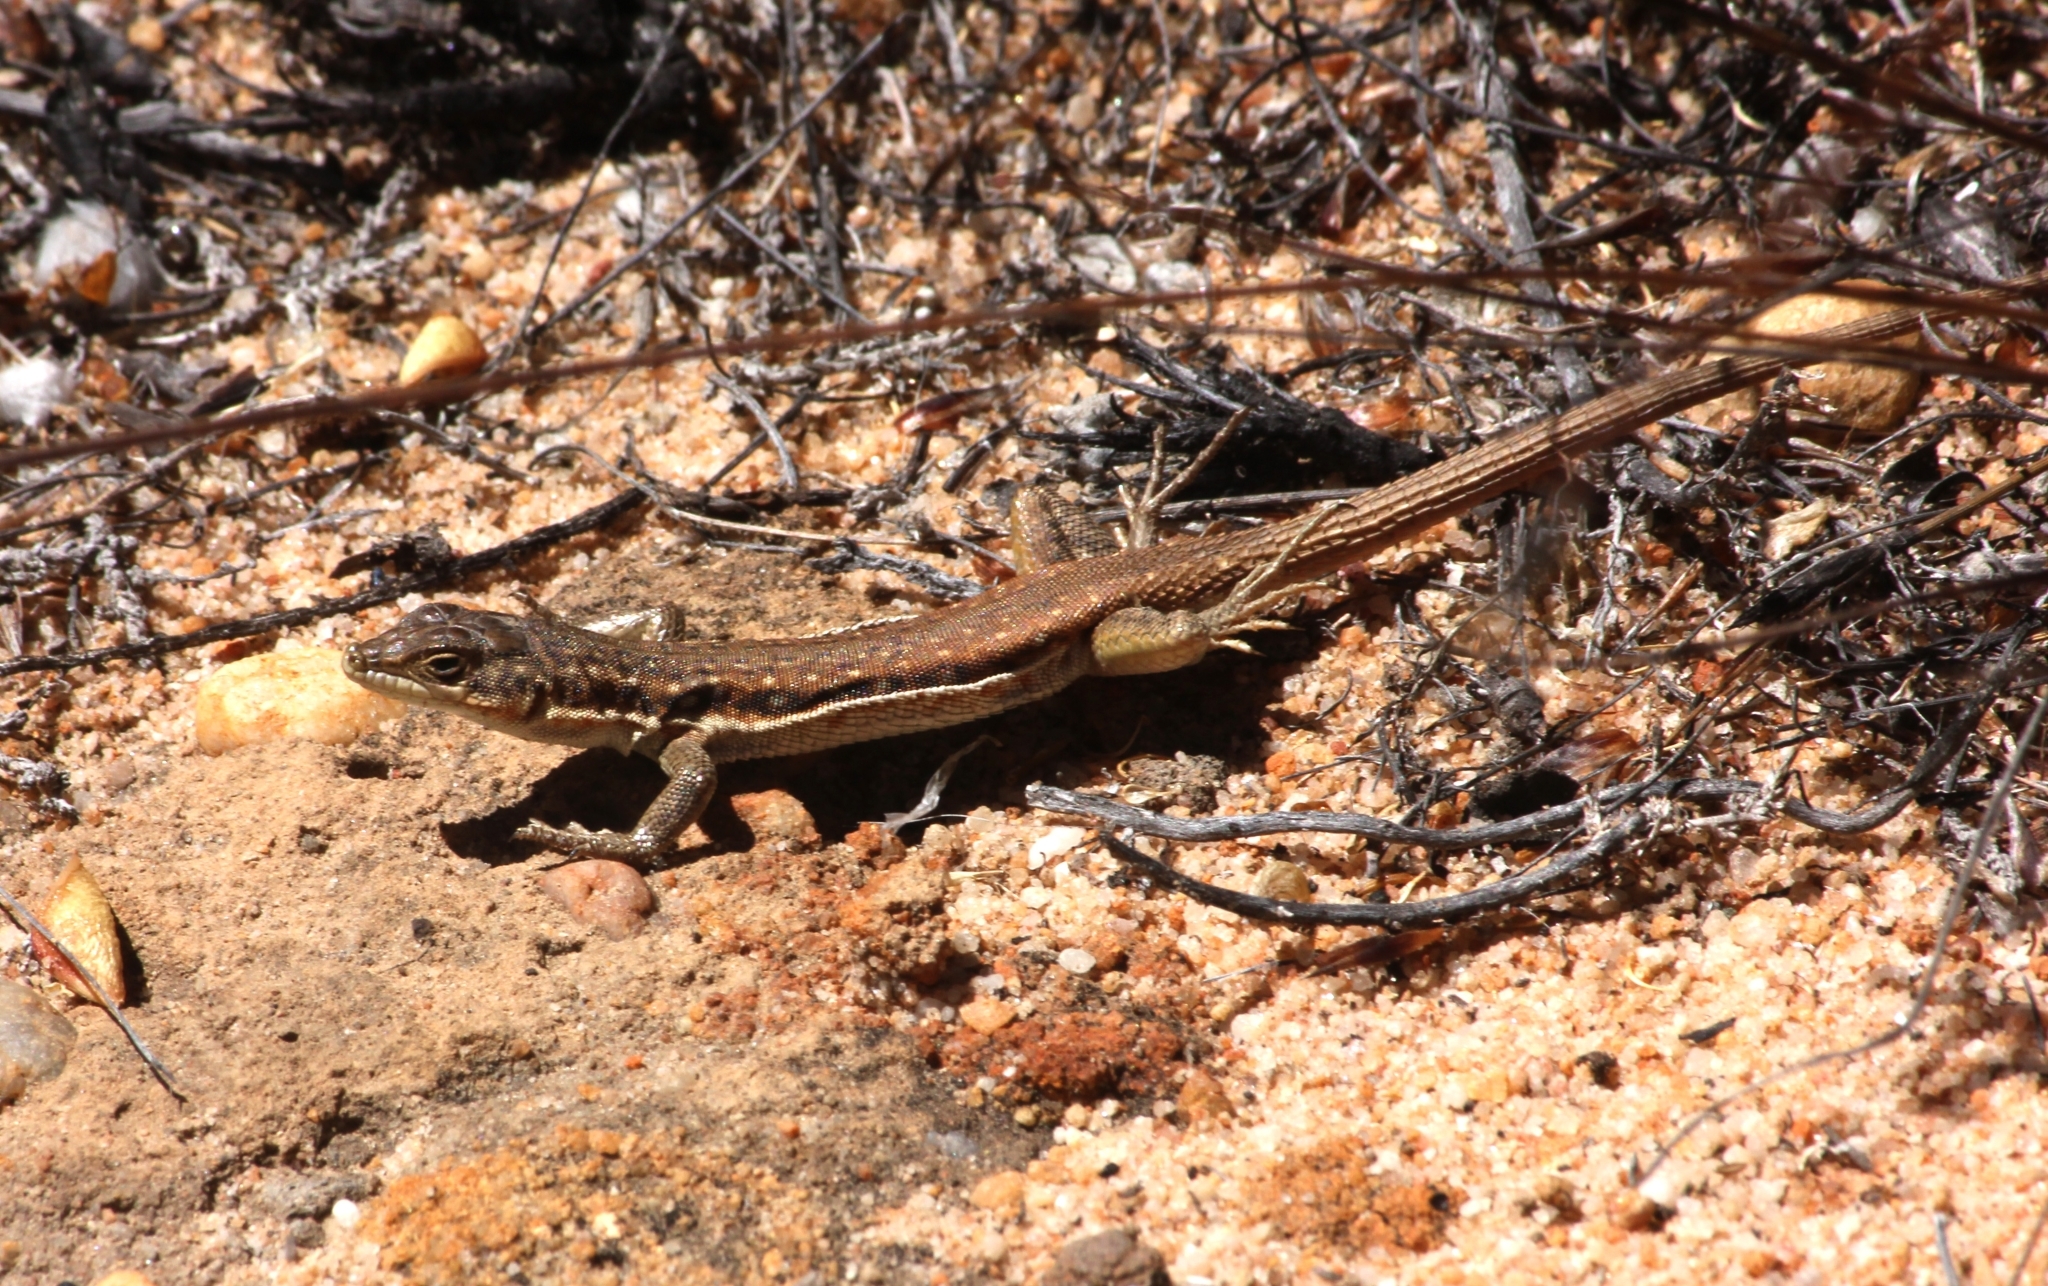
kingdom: Animalia
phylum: Chordata
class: Squamata
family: Lacertidae
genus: Pedioplanis
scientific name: Pedioplanis lineoocellata
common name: Spotted sand lizard
